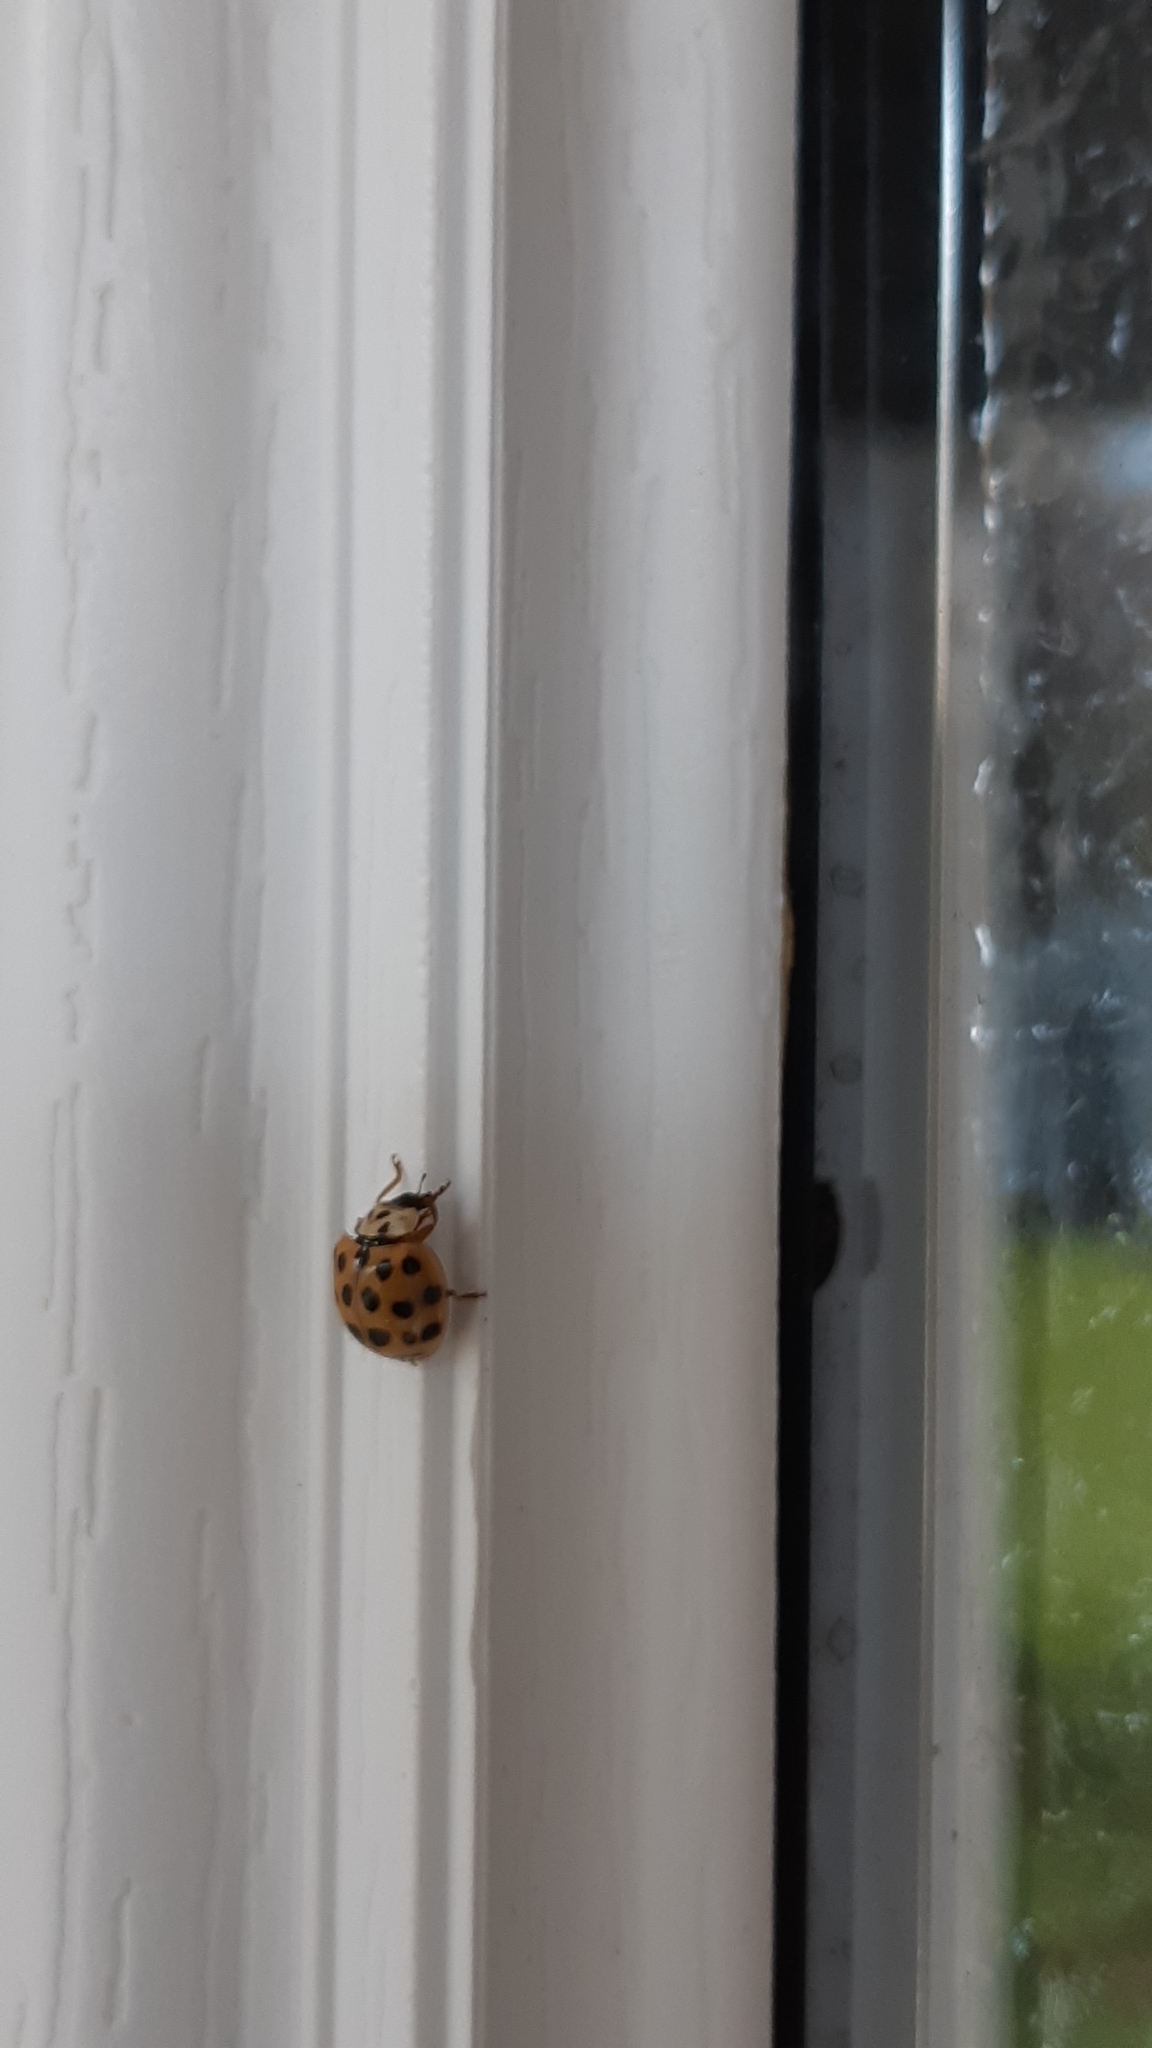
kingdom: Animalia
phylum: Arthropoda
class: Insecta
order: Coleoptera
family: Coccinellidae
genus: Harmonia
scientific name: Harmonia axyridis
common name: Harlequin ladybird
